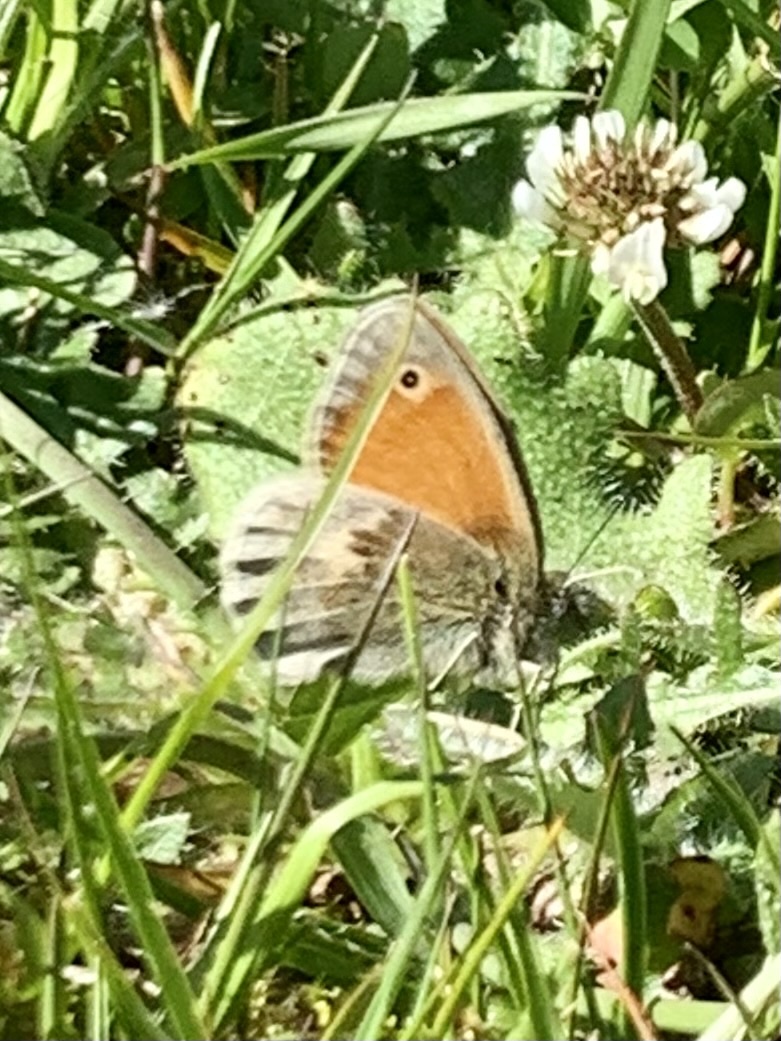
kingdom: Animalia
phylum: Arthropoda
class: Insecta
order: Lepidoptera
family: Nymphalidae
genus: Coenonympha
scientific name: Coenonympha pamphilus
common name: Small heath
